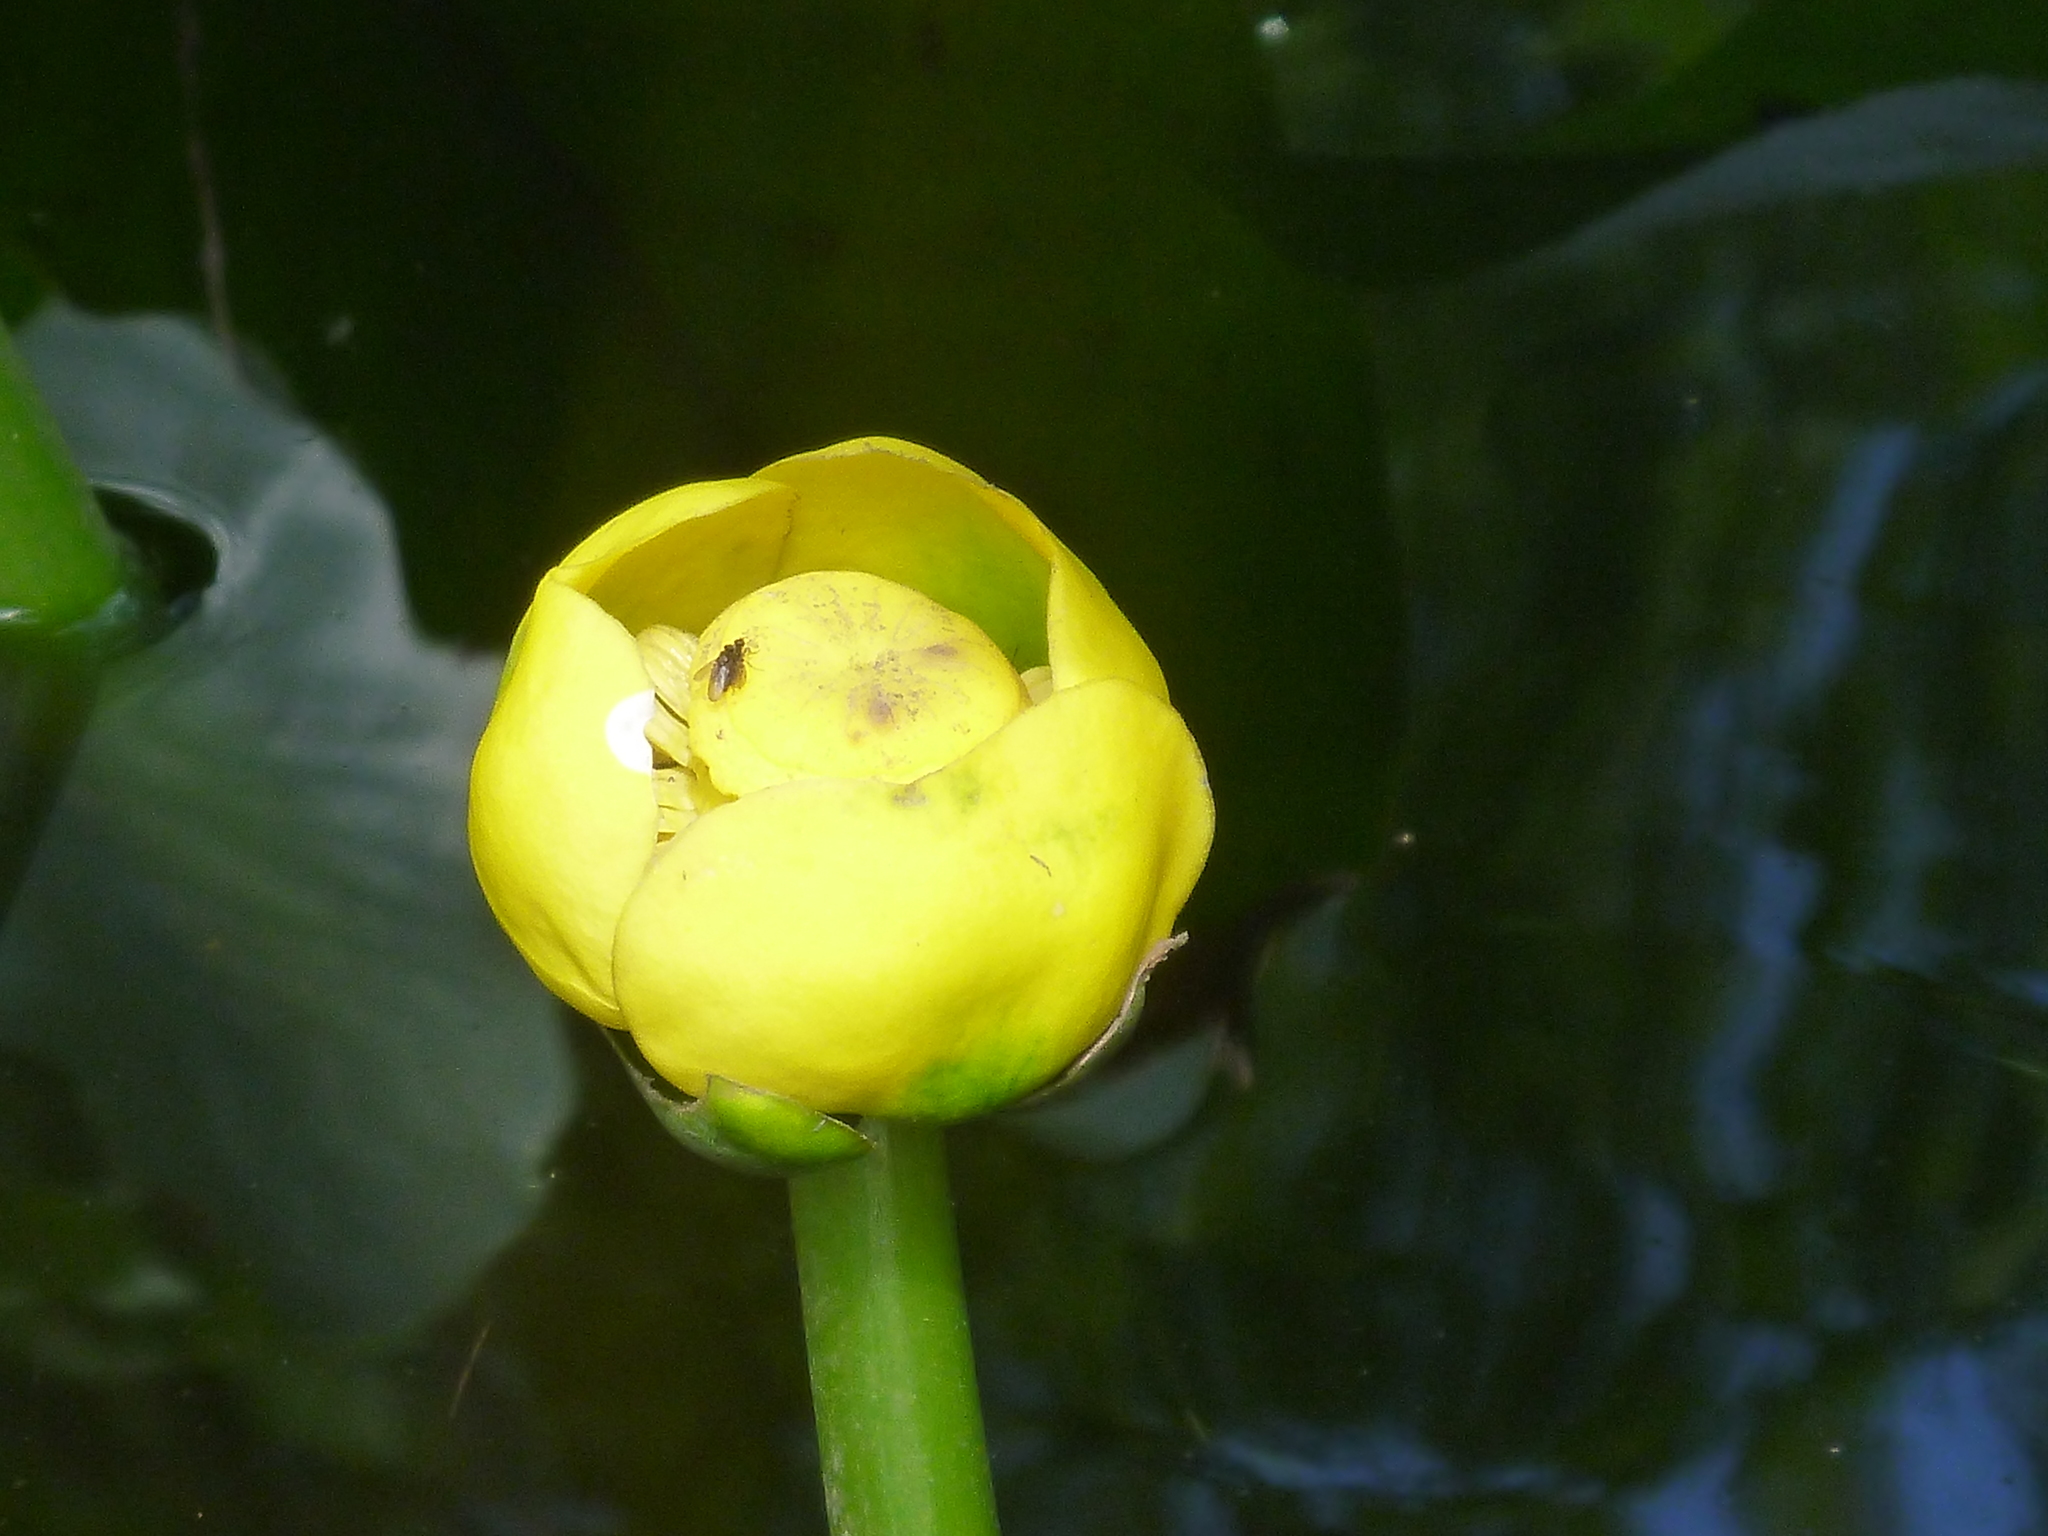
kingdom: Plantae
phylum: Tracheophyta
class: Magnoliopsida
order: Nymphaeales
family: Nymphaeaceae
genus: Nuphar
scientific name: Nuphar advena
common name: Spatter-dock
